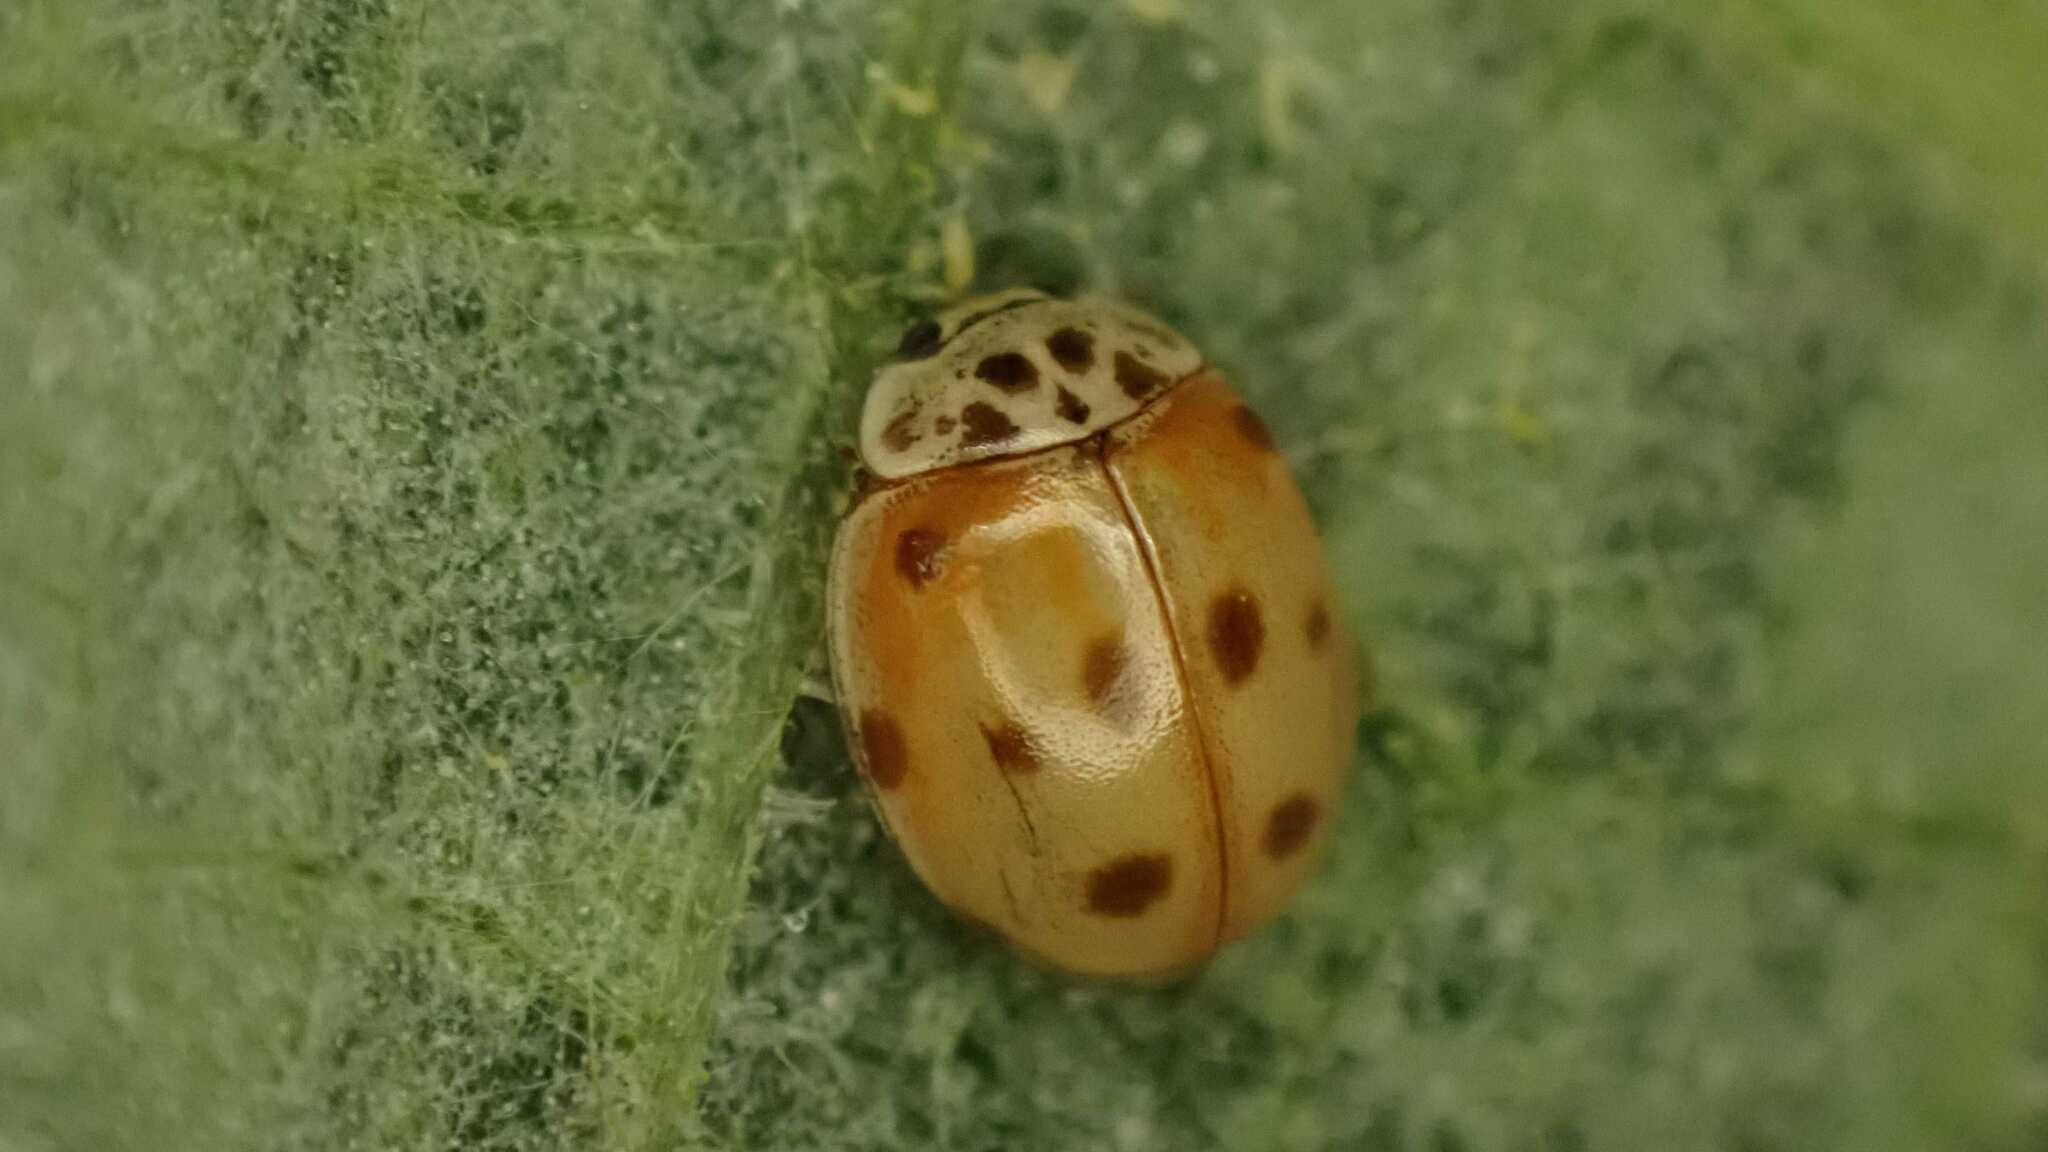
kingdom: Animalia
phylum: Arthropoda
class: Insecta
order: Coleoptera
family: Coccinellidae
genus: Adalia
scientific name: Adalia decempunctata
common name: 10-spot ladybird
